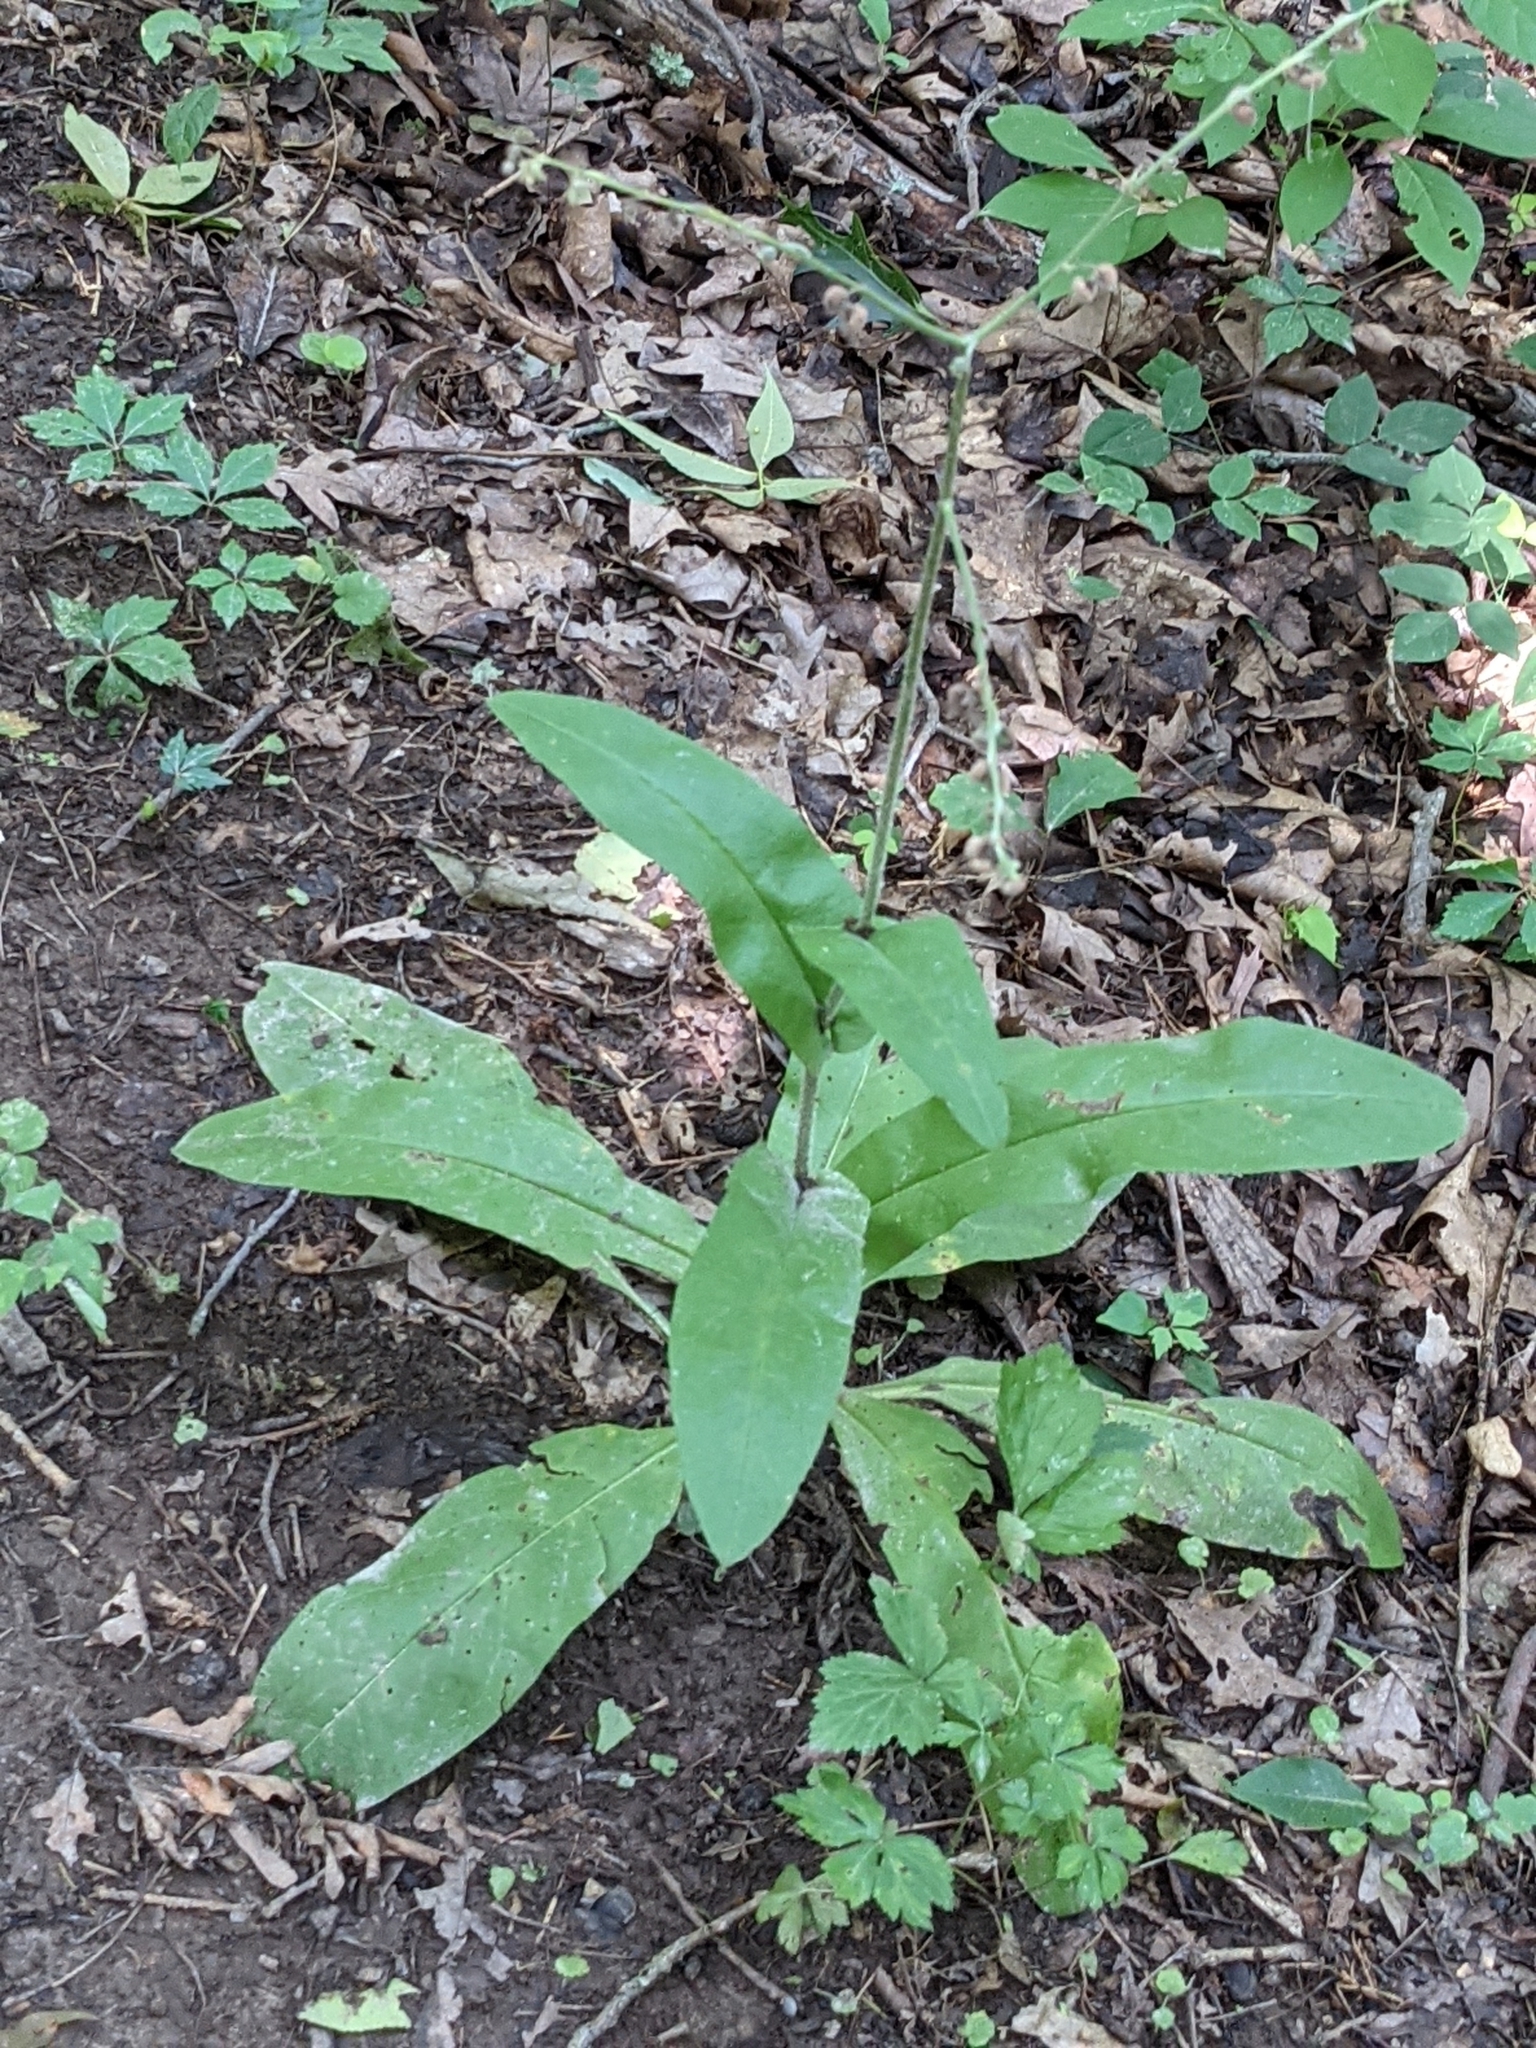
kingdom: Plantae
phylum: Tracheophyta
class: Magnoliopsida
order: Boraginales
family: Boraginaceae
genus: Andersonglossum
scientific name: Andersonglossum virginianum
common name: Wild comfrey
